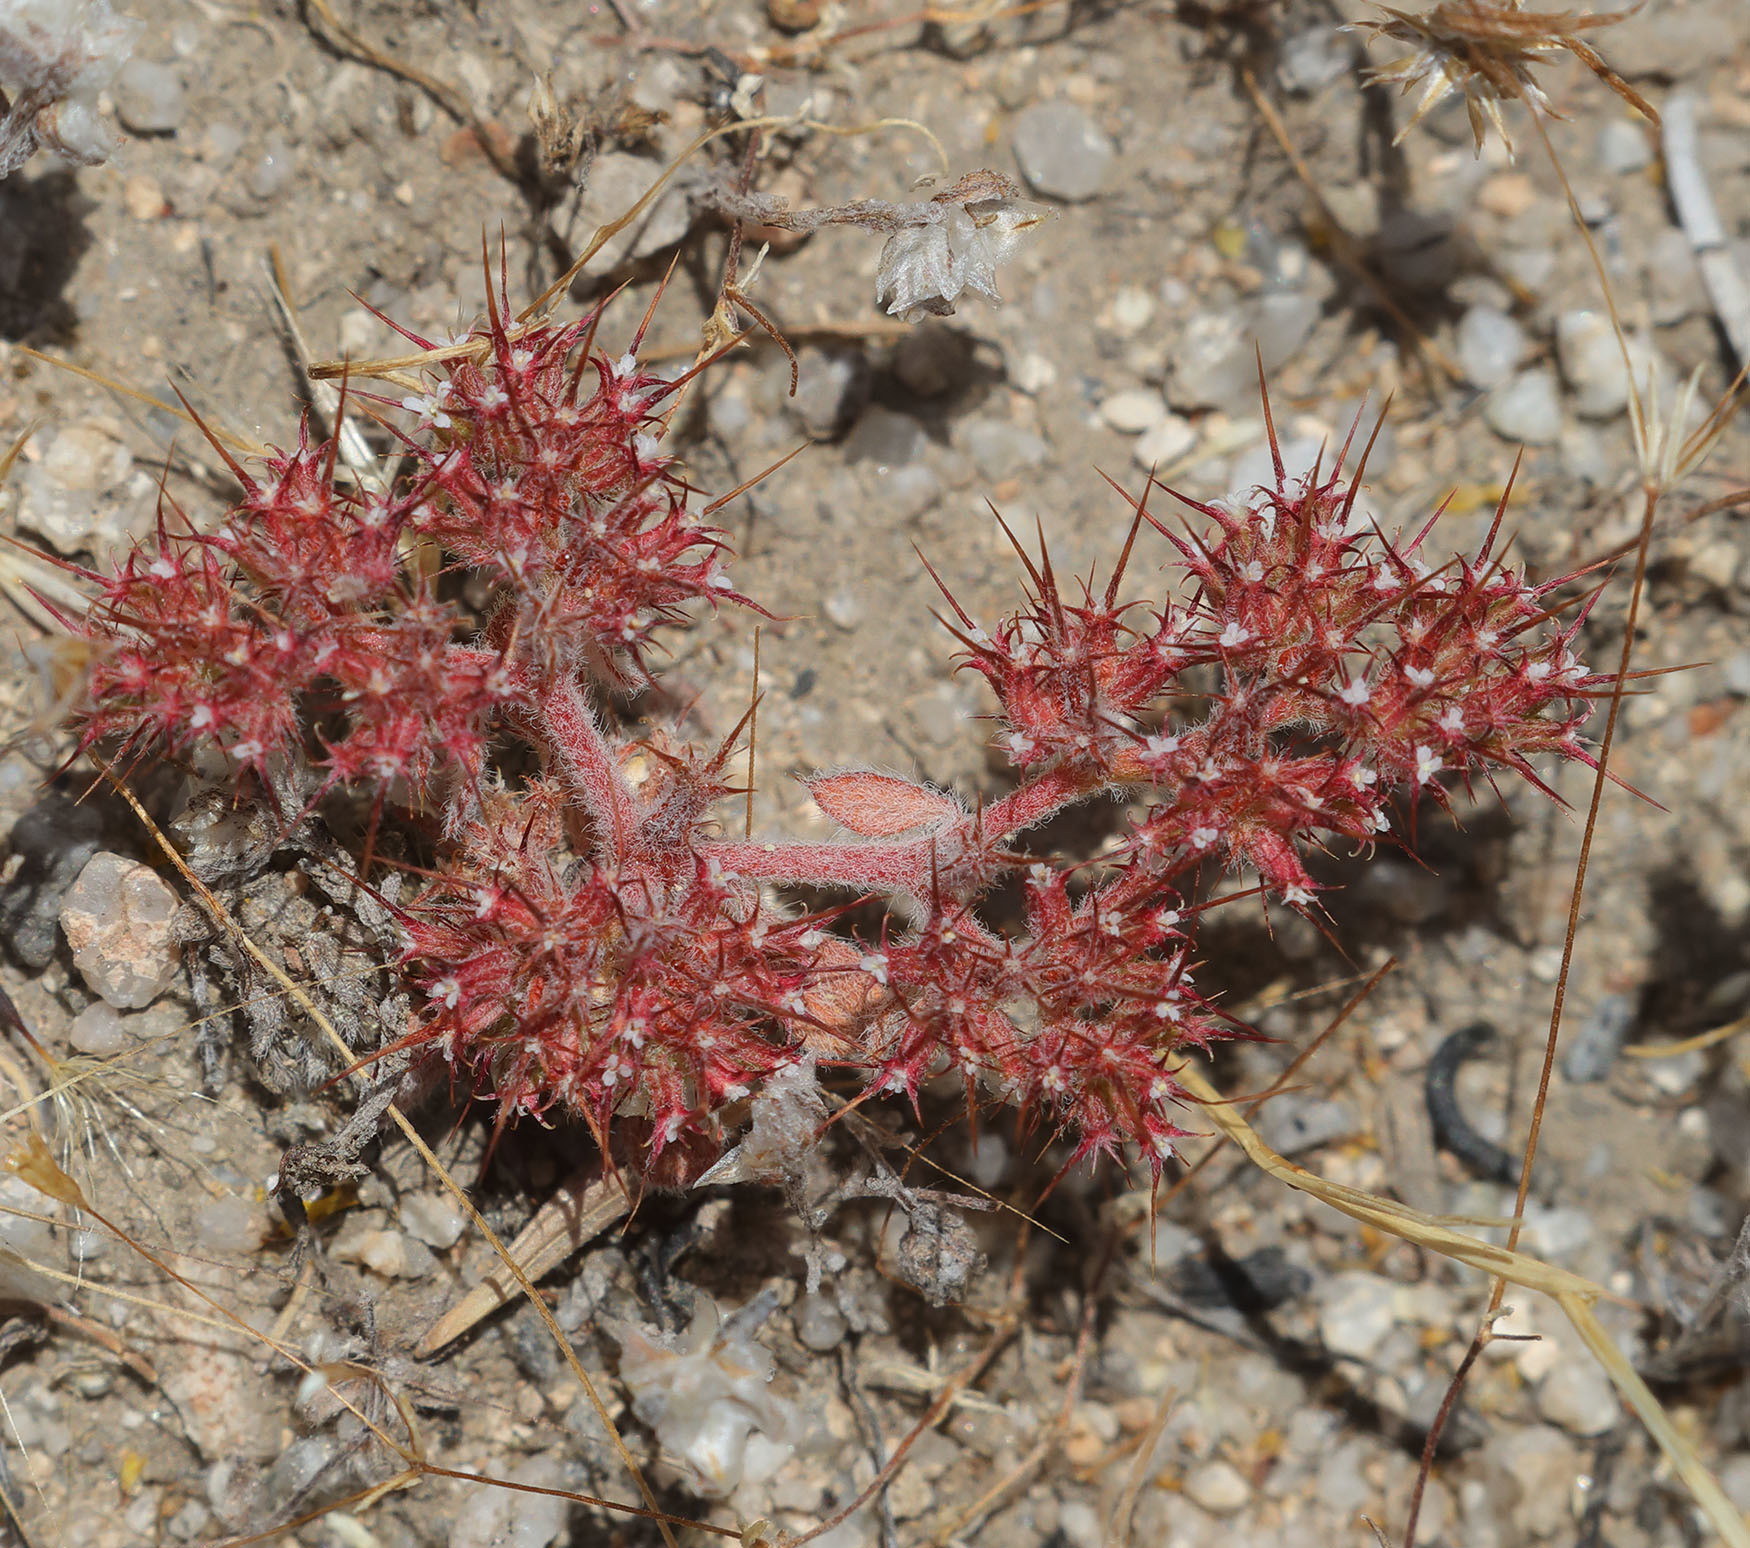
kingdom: Plantae
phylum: Tracheophyta
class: Magnoliopsida
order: Caryophyllales
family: Polygonaceae
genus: Chorizanthe
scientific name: Chorizanthe uniaristata
